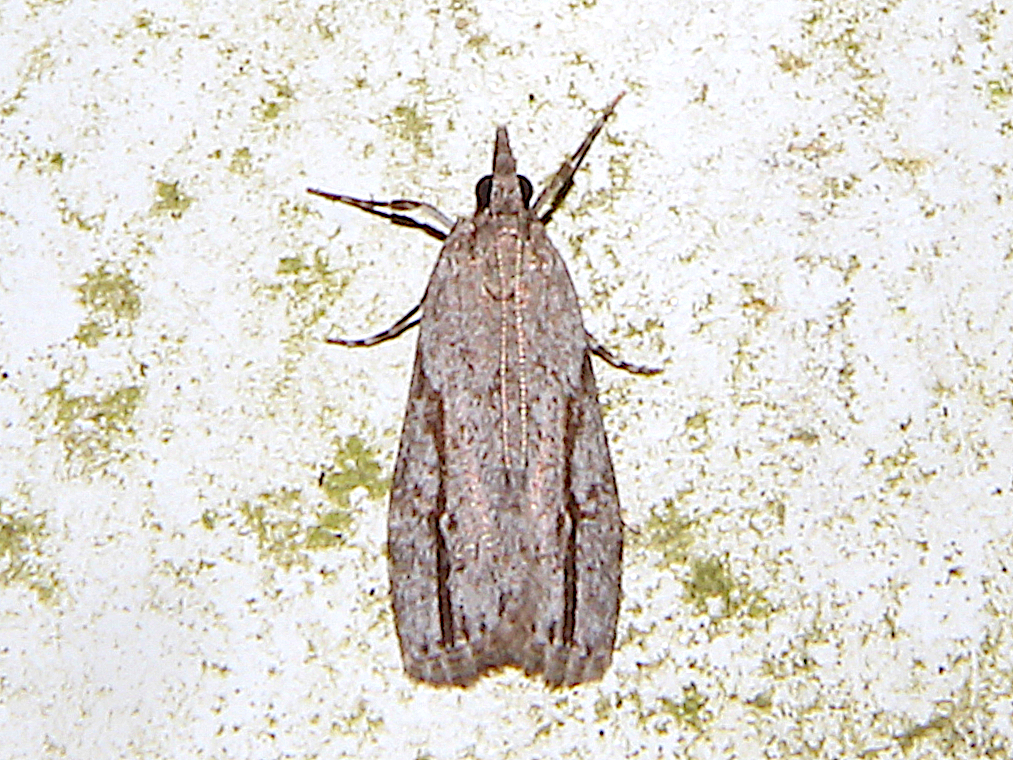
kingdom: Animalia
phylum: Arthropoda
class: Insecta
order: Lepidoptera
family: Crambidae
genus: Eudonia
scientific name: Eudonia bisinualis
